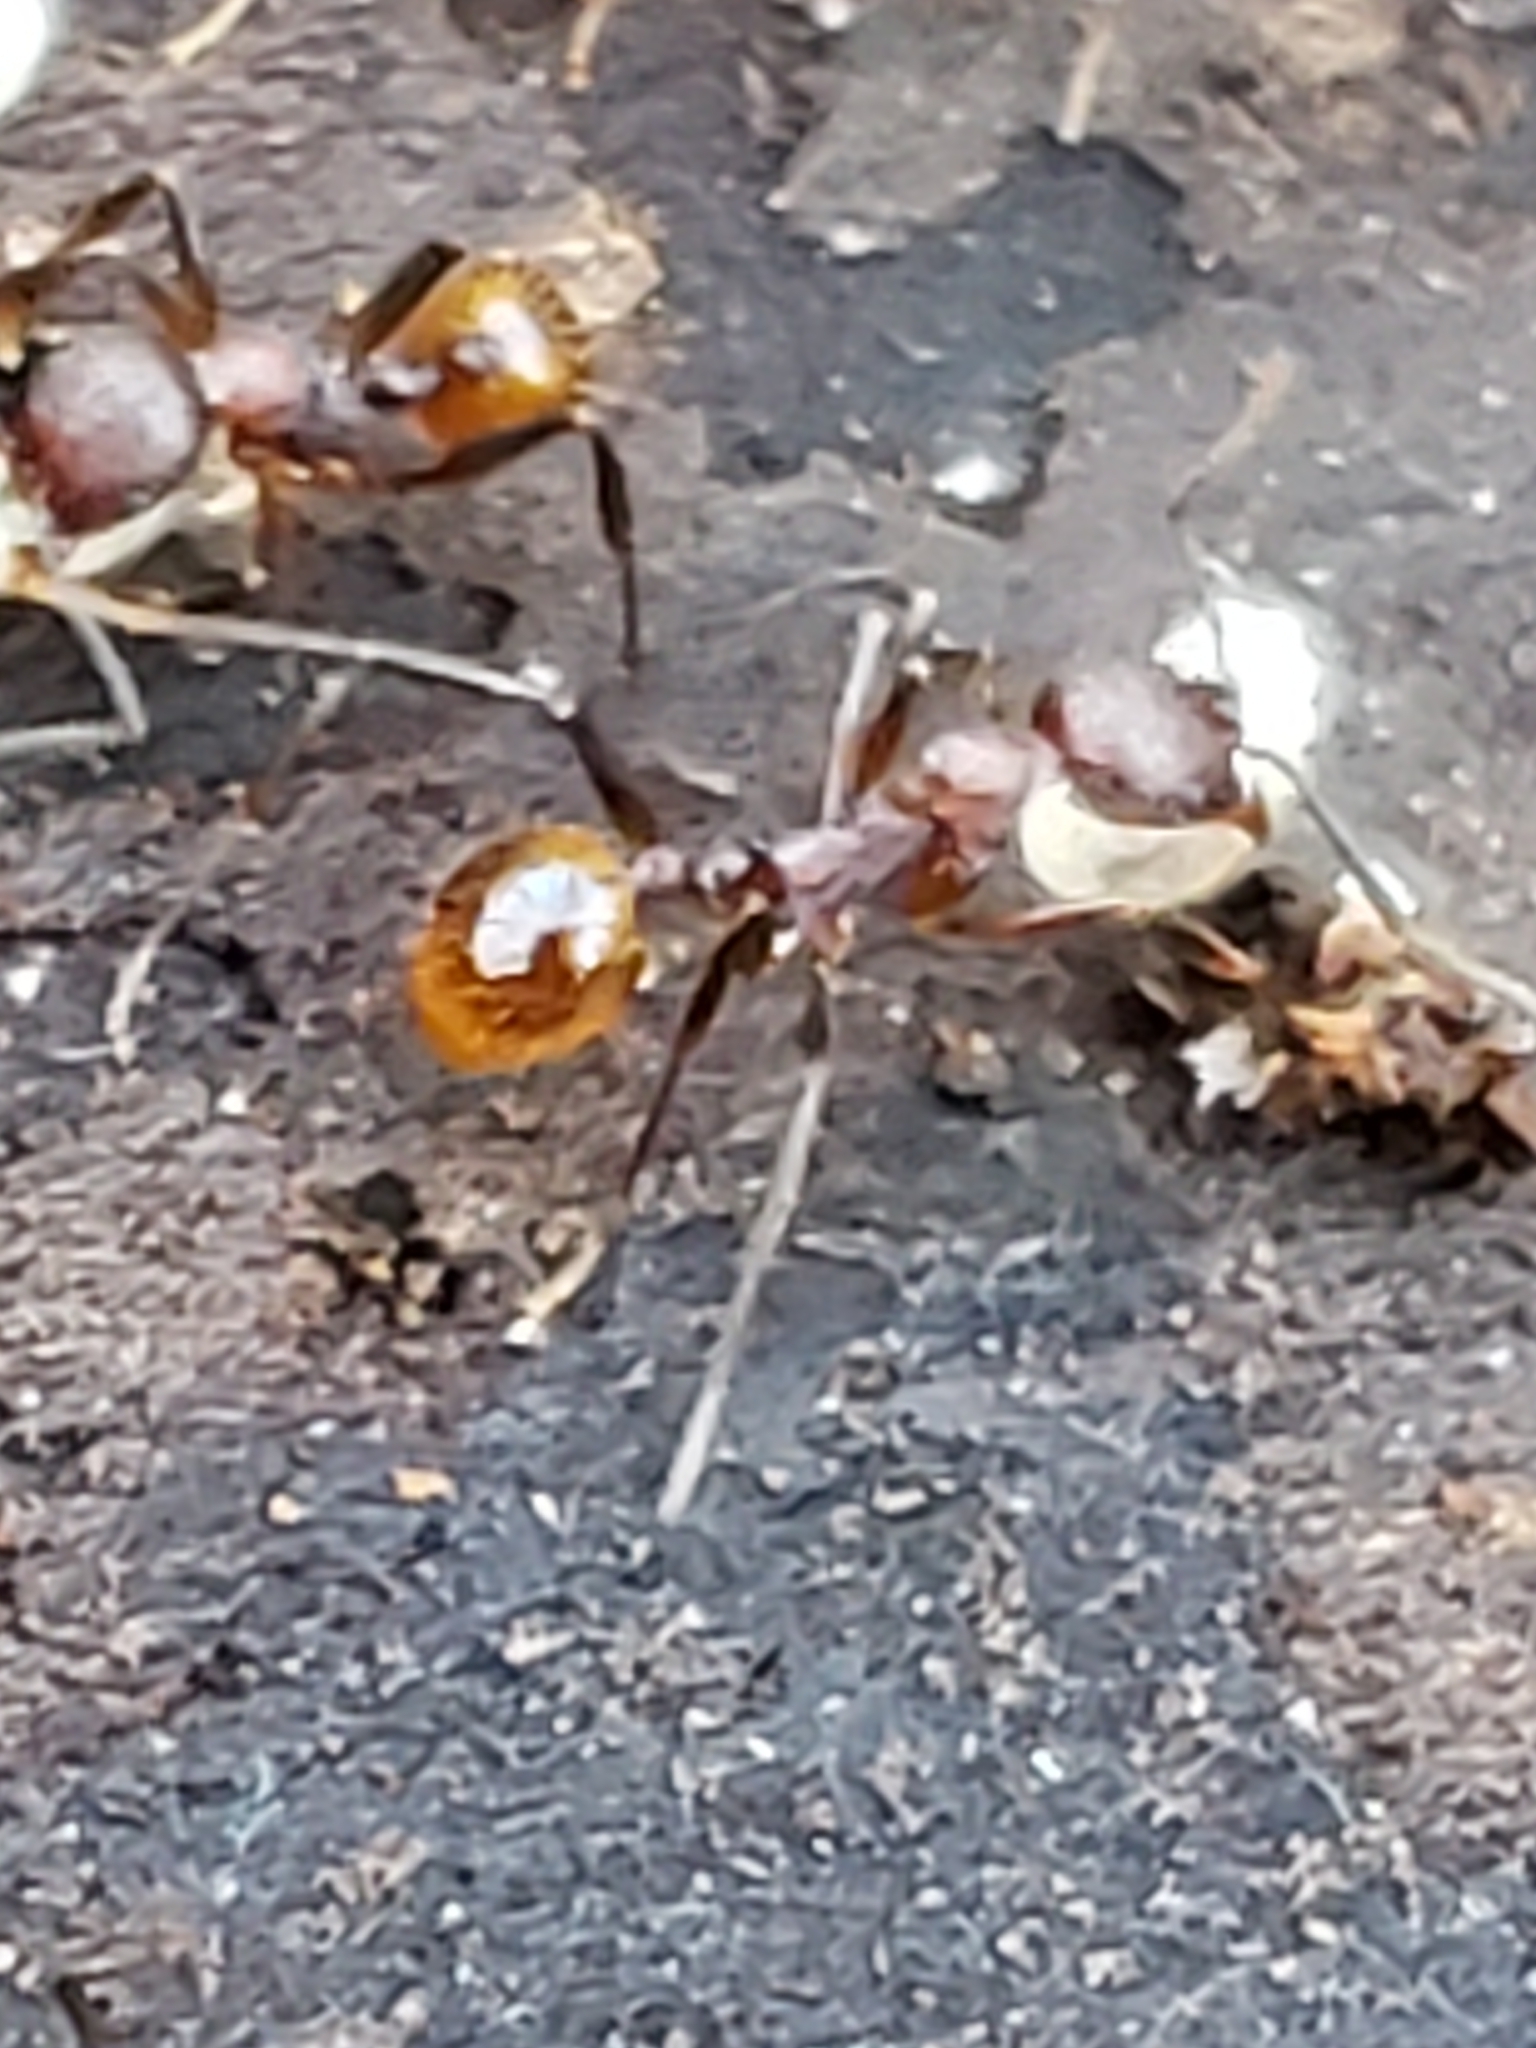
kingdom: Animalia
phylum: Arthropoda
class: Insecta
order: Hymenoptera
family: Formicidae
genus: Aphaenogaster
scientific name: Aphaenogaster fulva
